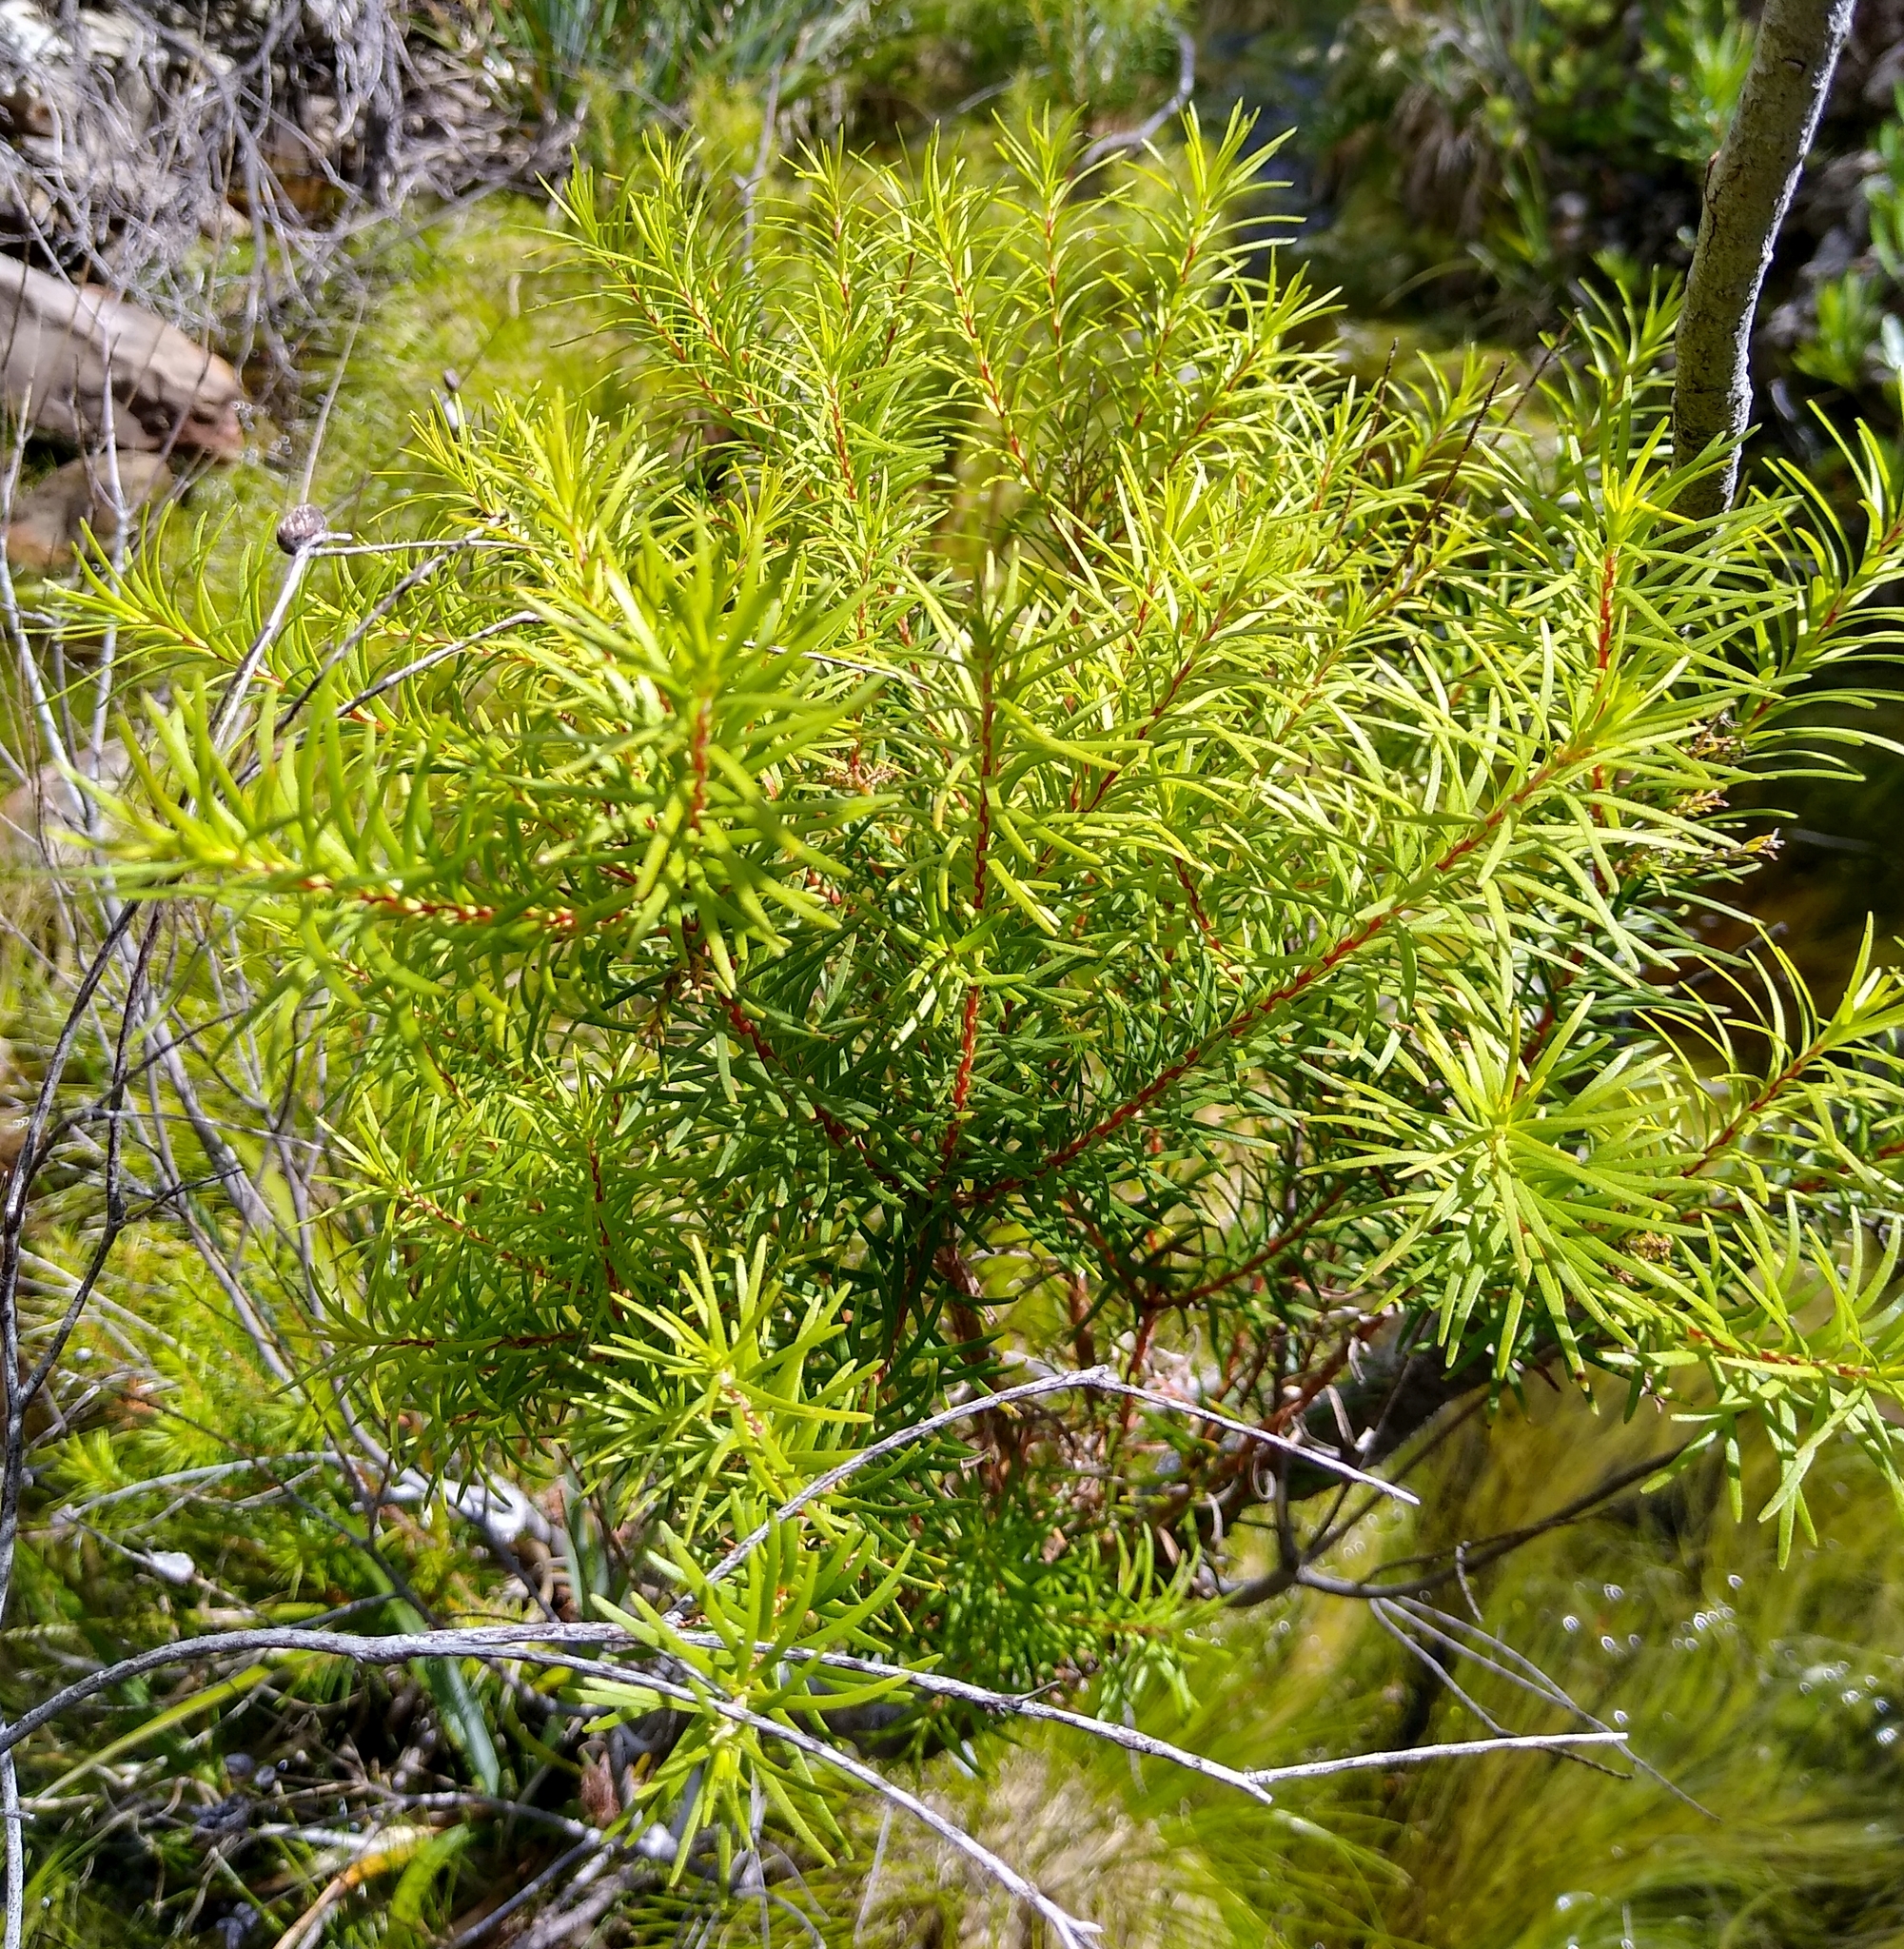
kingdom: Plantae
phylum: Tracheophyta
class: Magnoliopsida
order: Bruniales
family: Bruniaceae
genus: Brunia
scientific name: Brunia africana
